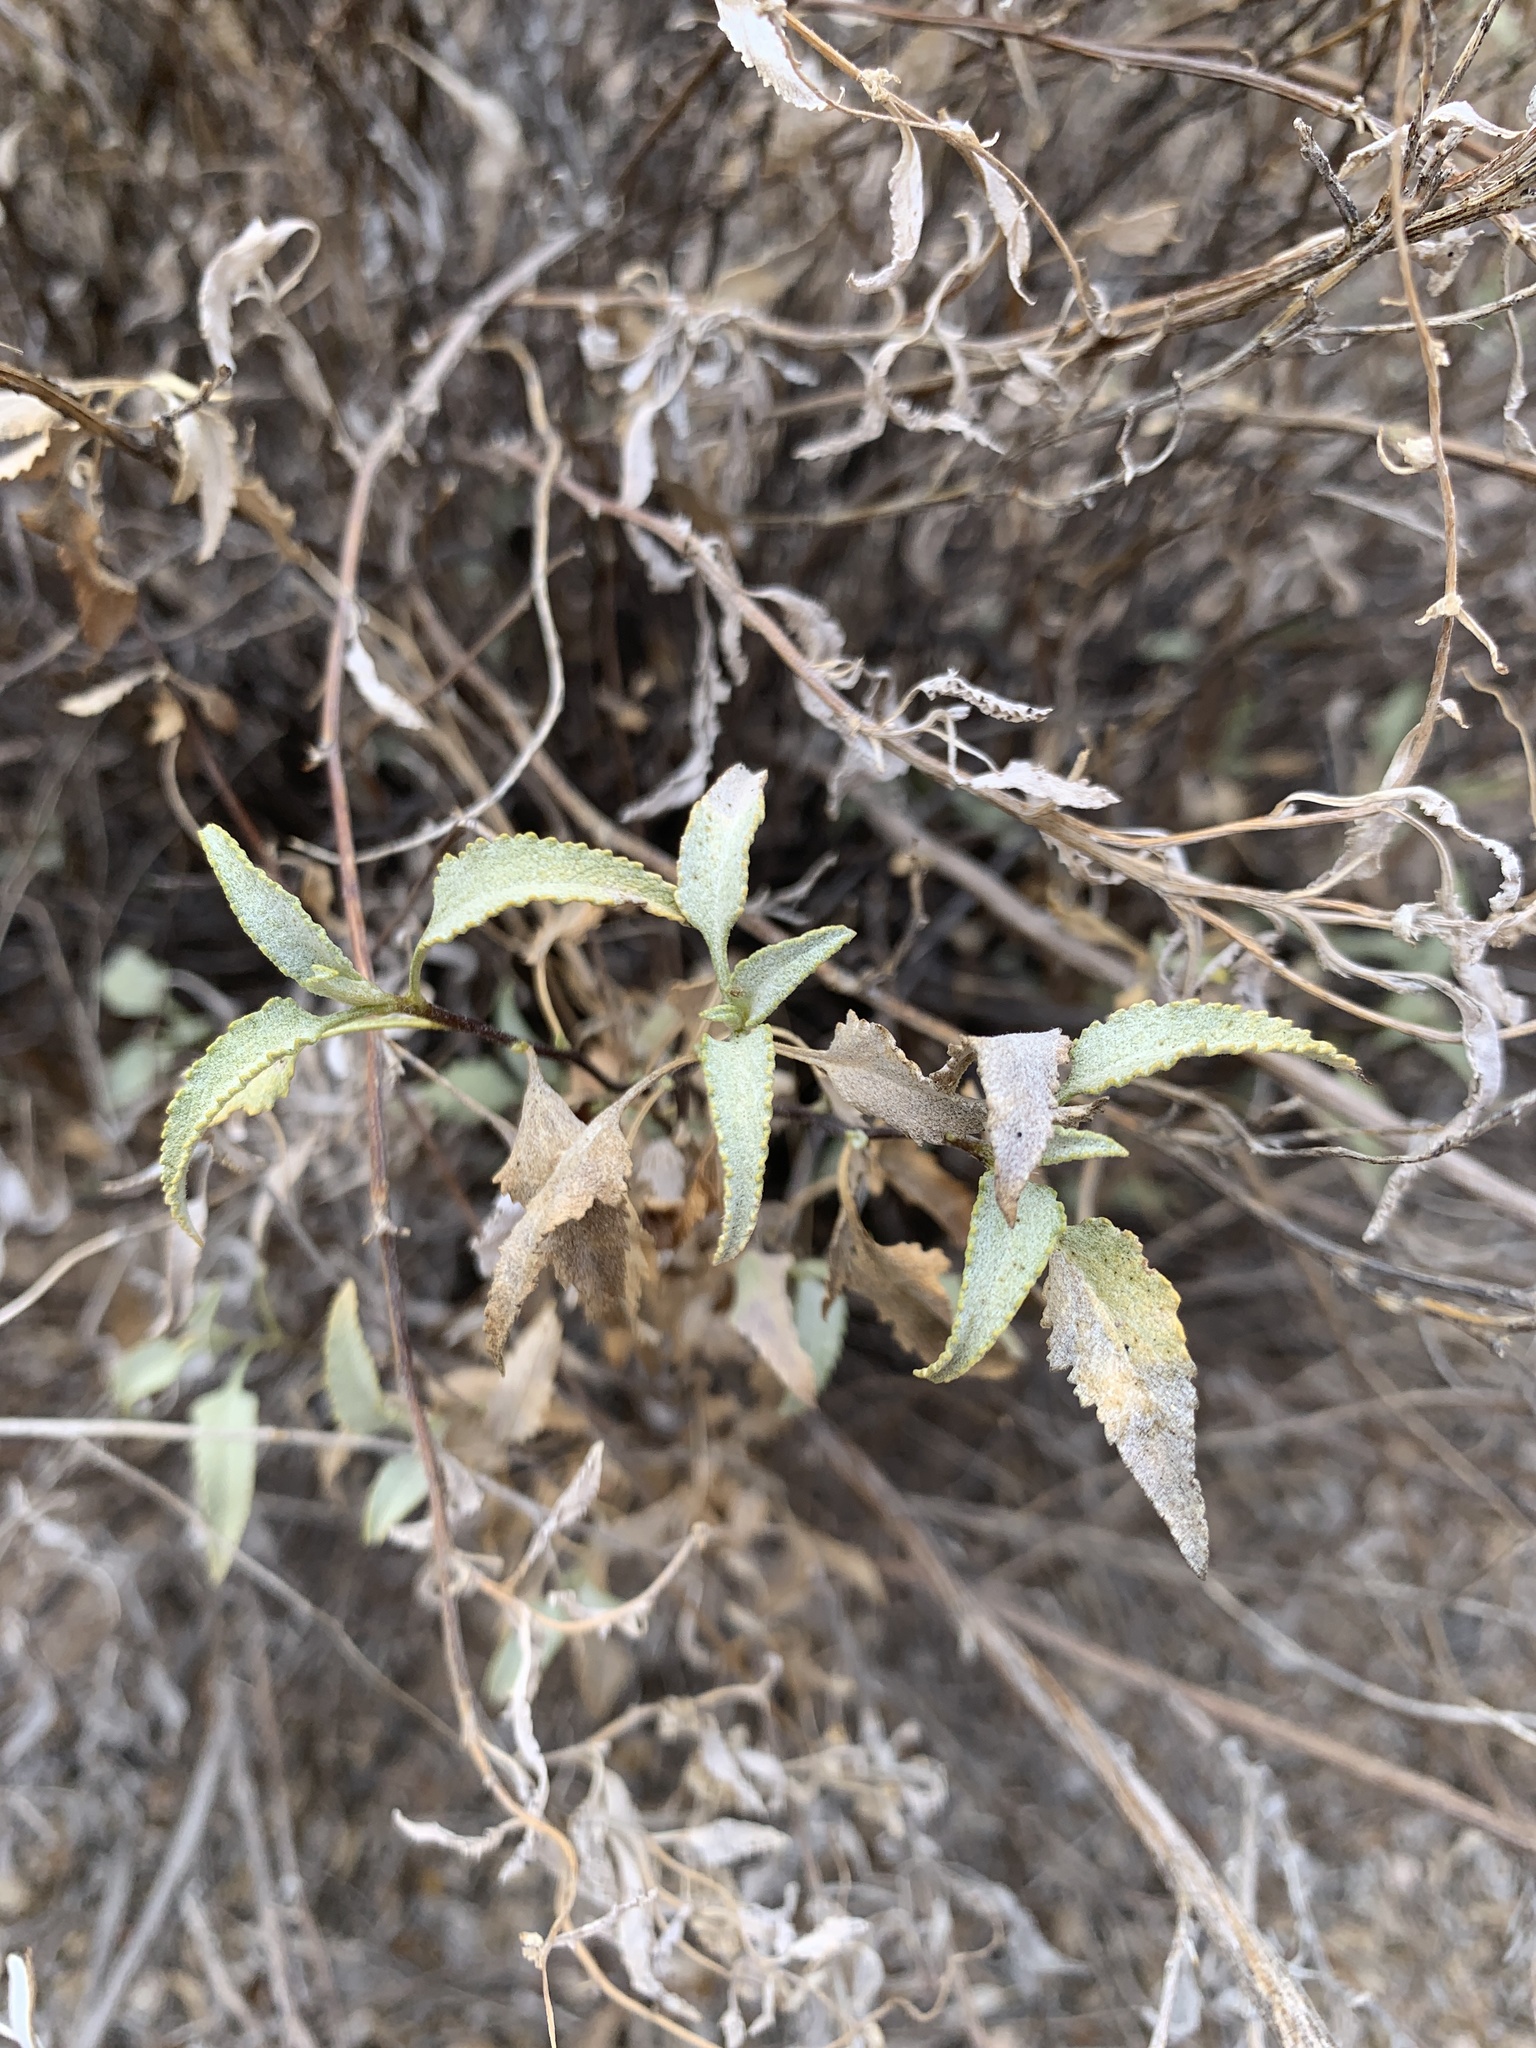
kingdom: Plantae
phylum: Tracheophyta
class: Magnoliopsida
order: Asterales
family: Asteraceae
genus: Ambrosia
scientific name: Ambrosia deltoidea
